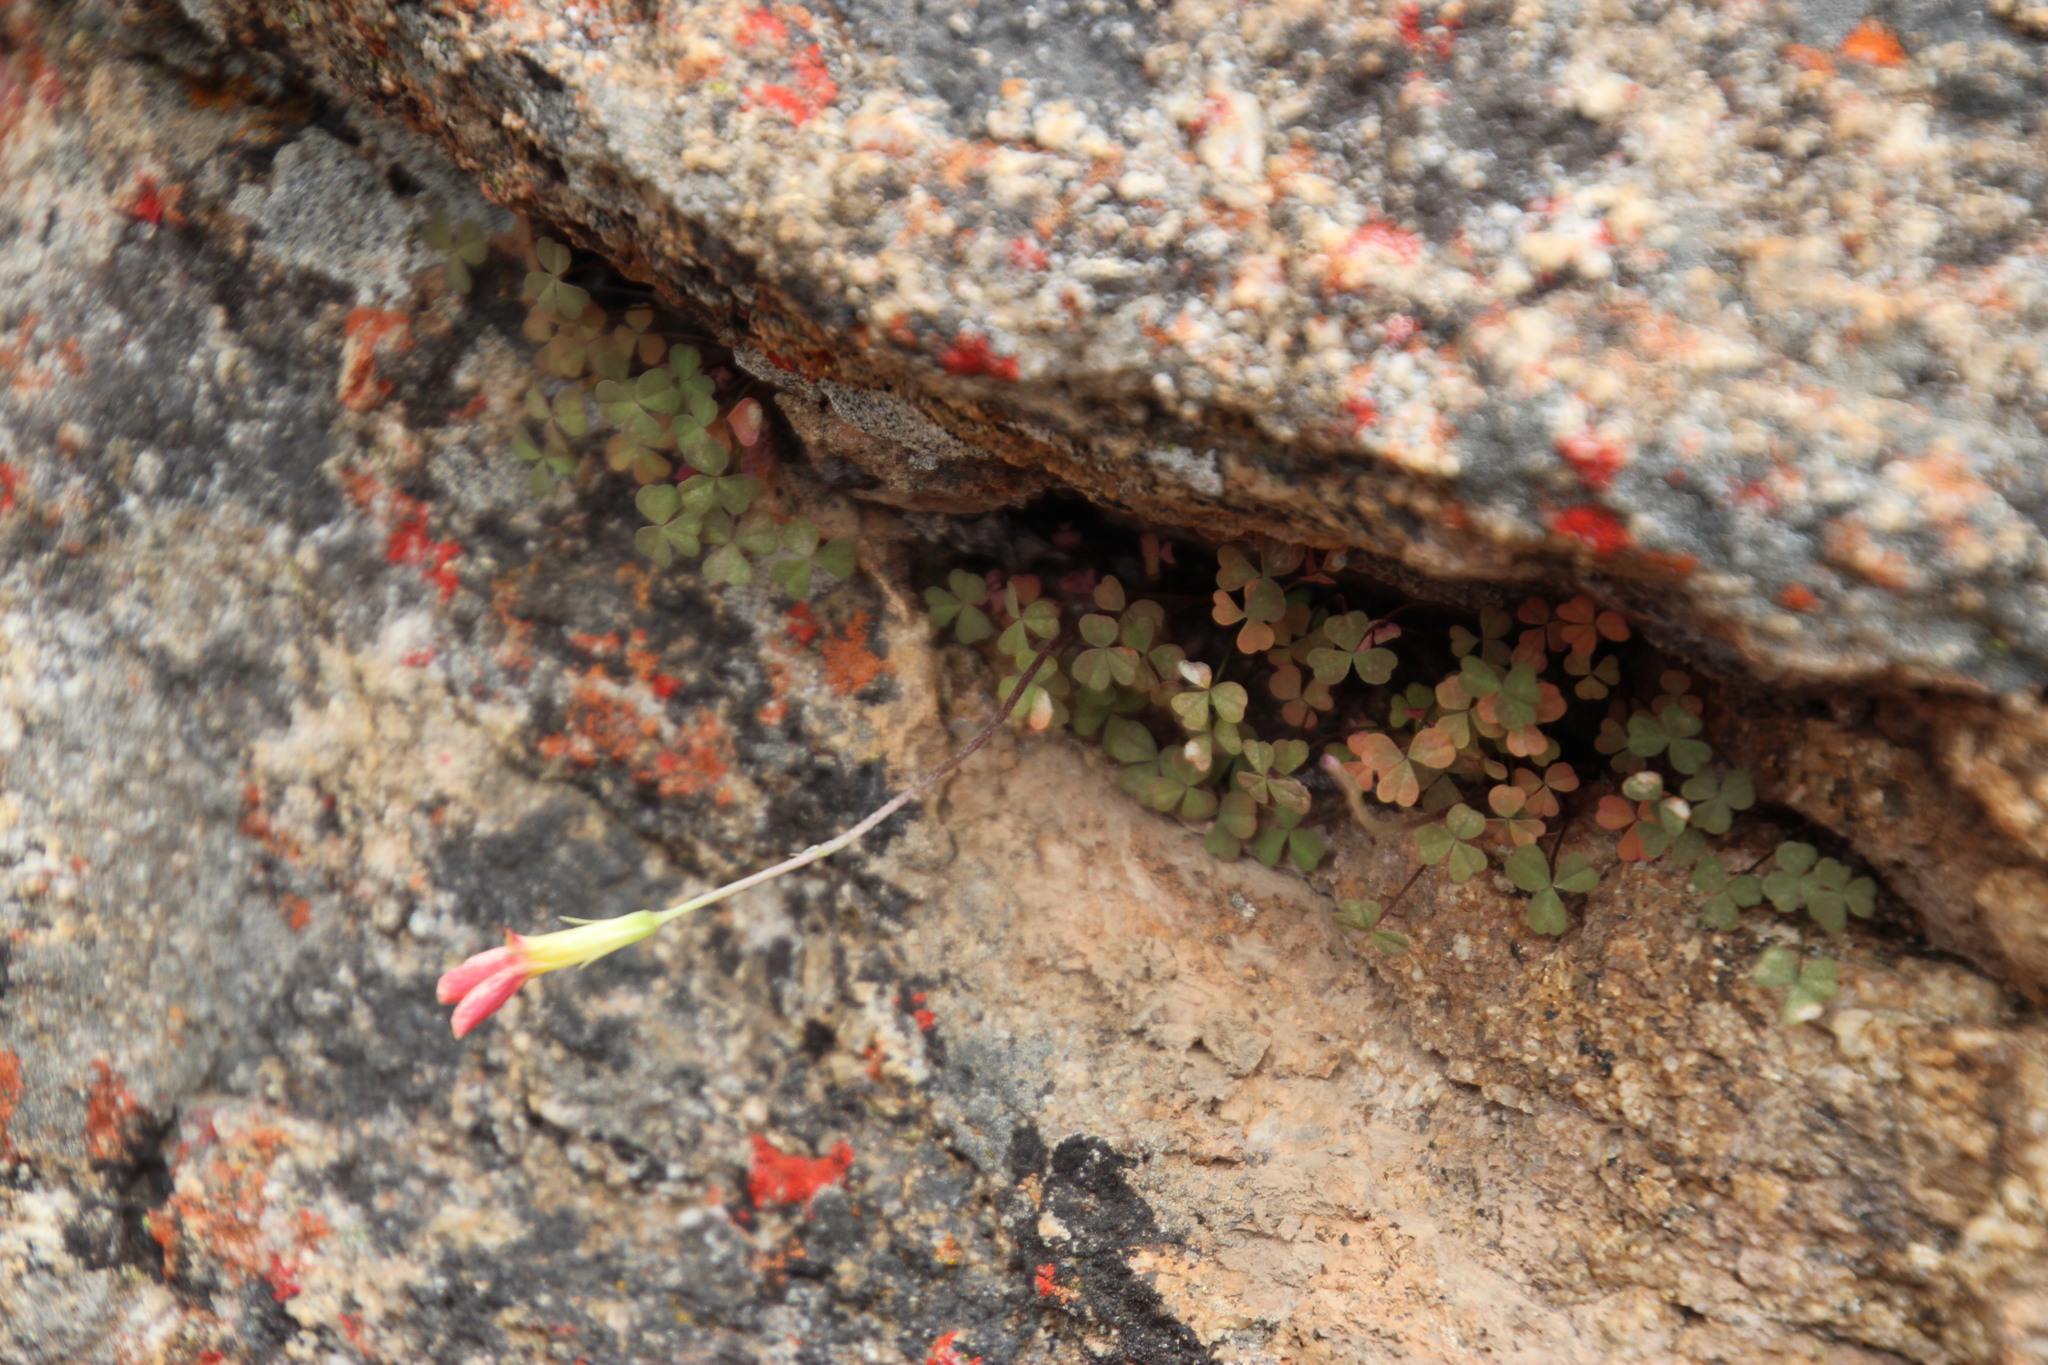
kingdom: Plantae
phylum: Tracheophyta
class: Magnoliopsida
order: Oxalidales
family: Oxalidaceae
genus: Oxalis
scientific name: Oxalis obtusa
